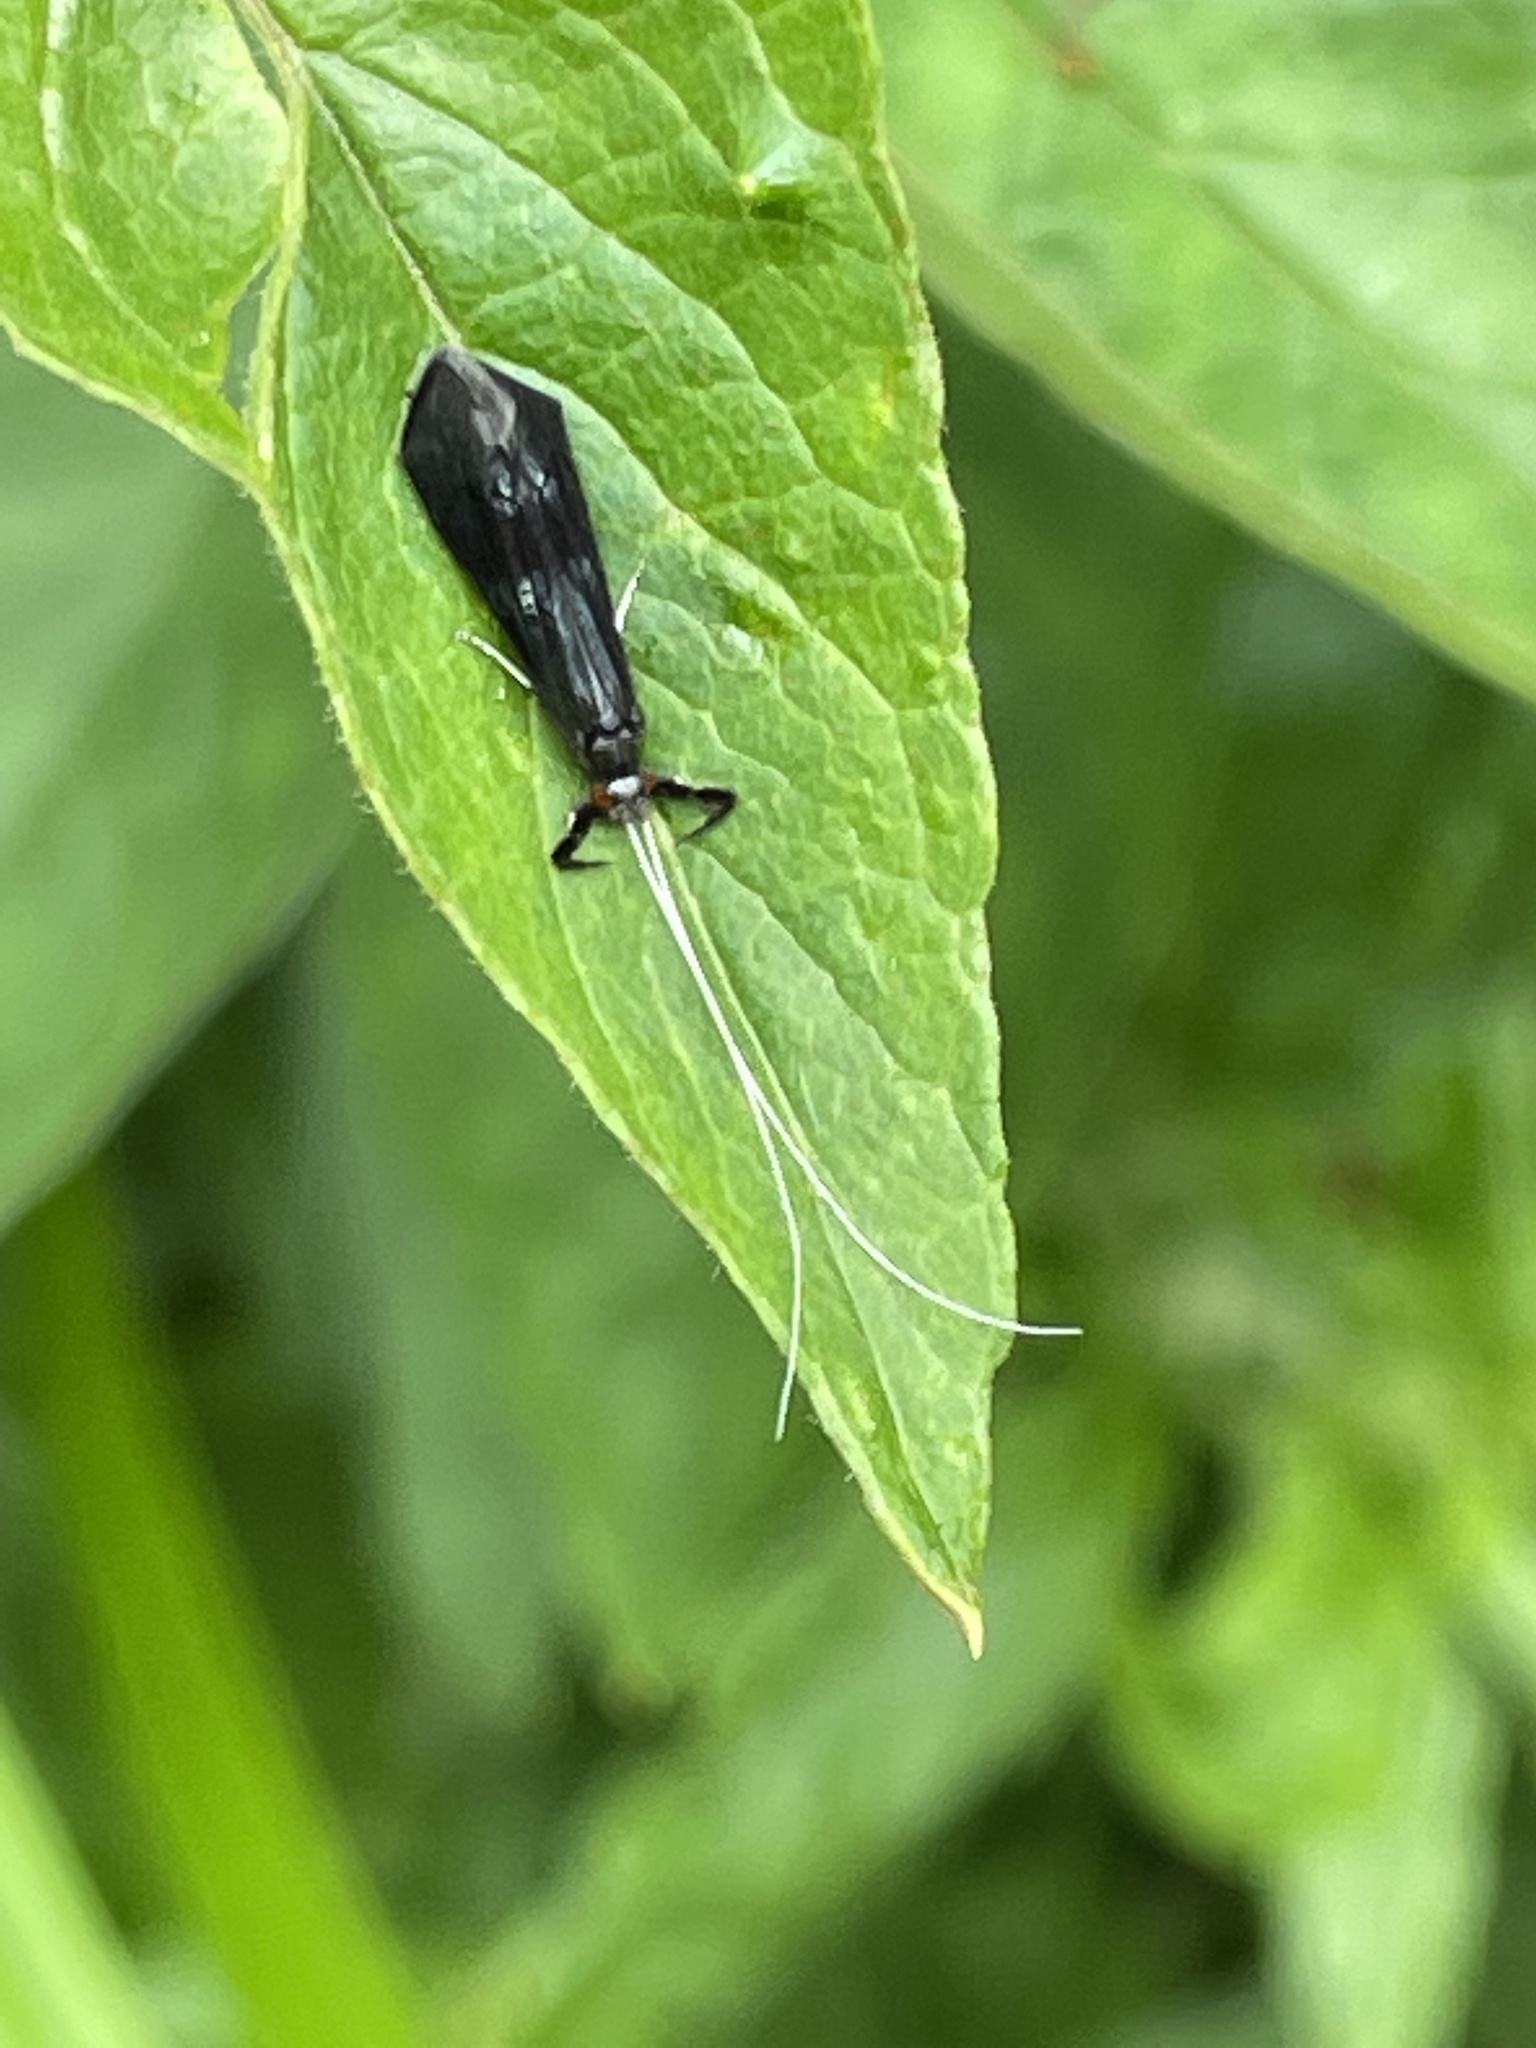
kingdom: Animalia
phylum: Arthropoda
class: Insecta
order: Trichoptera
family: Leptoceridae
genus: Mystacides
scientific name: Mystacides azureus
